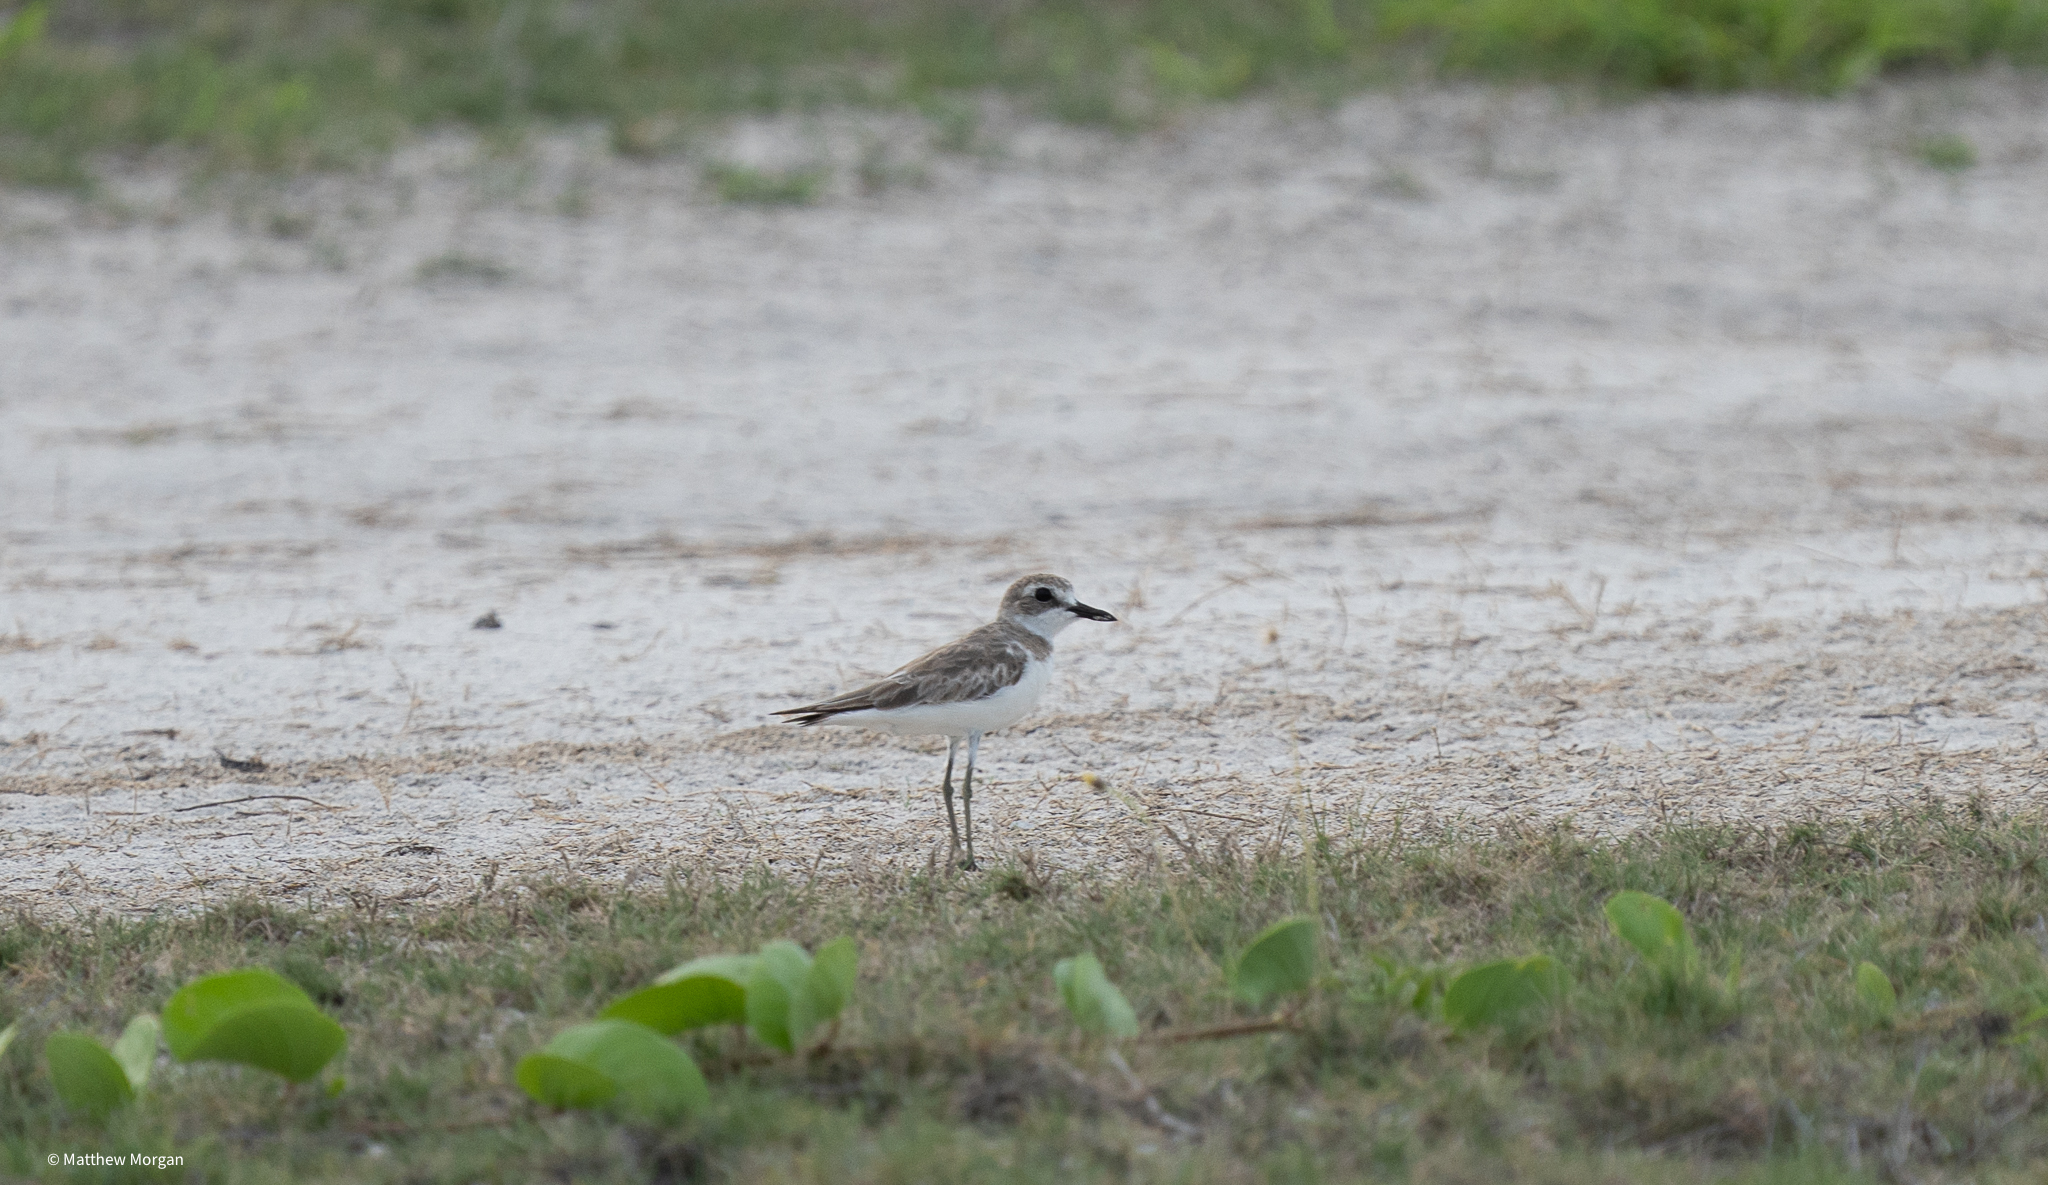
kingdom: Animalia
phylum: Chordata
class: Aves
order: Charadriiformes
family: Charadriidae
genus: Charadrius
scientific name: Charadrius leschenaultii
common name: Greater sand plover
